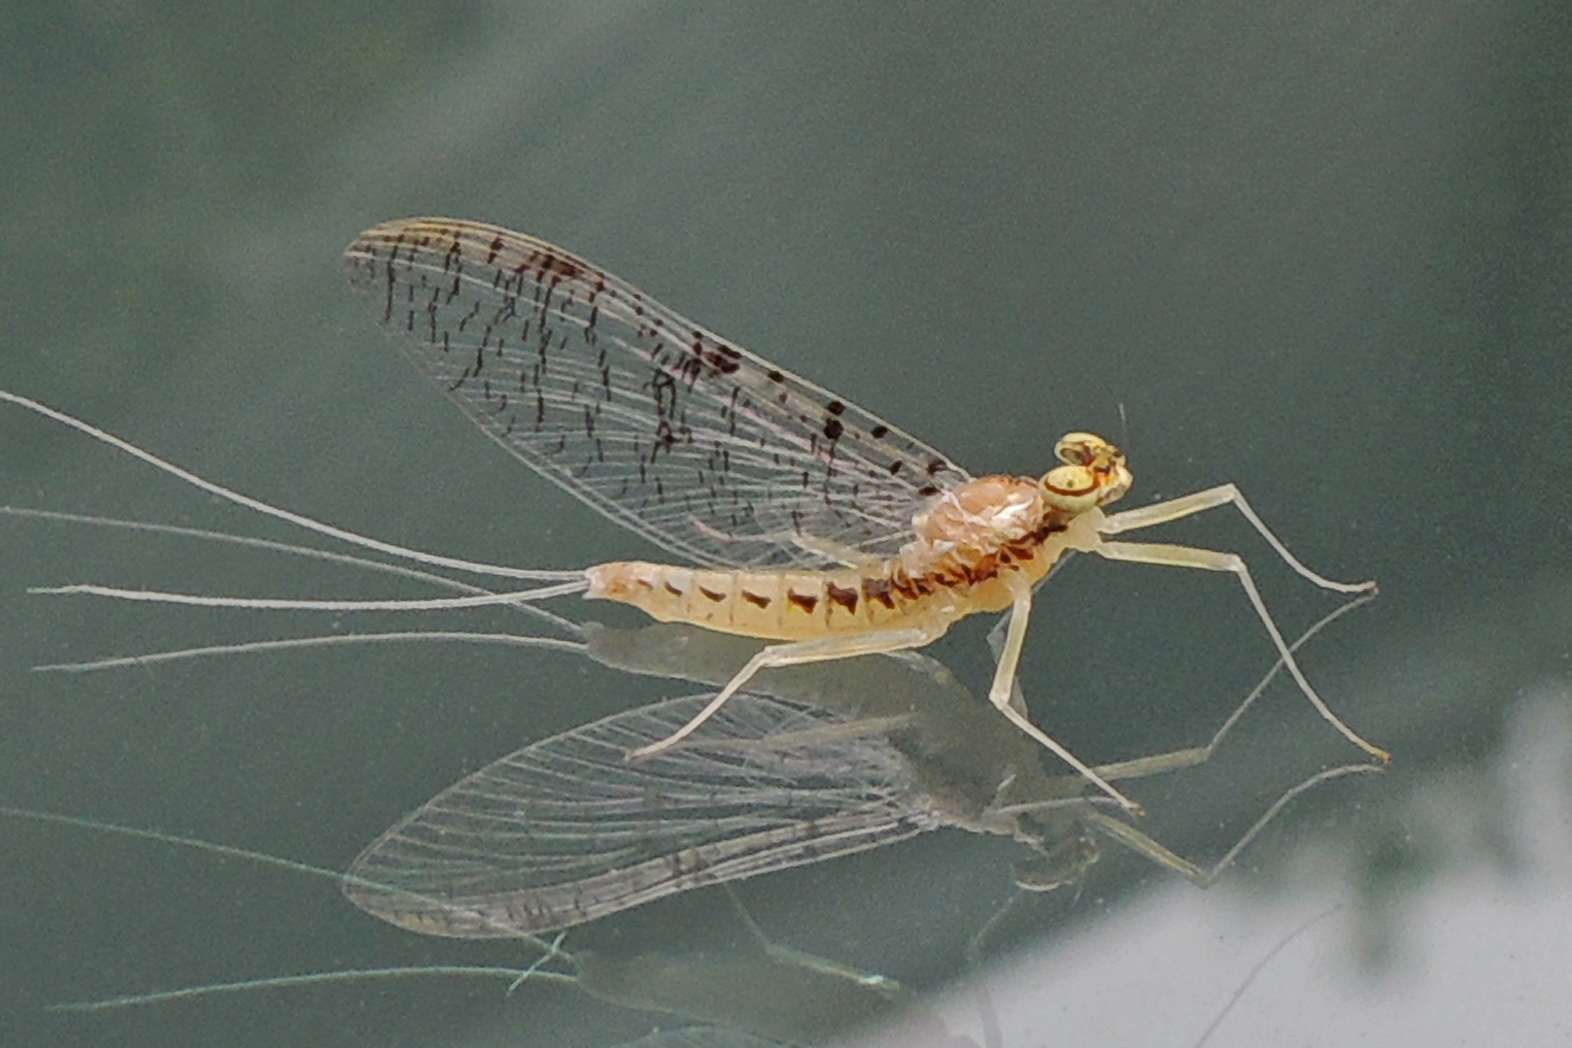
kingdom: Animalia
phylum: Arthropoda
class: Insecta
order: Ephemeroptera
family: Heptageniidae
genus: Leucrocuta
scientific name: Leucrocuta minerva
